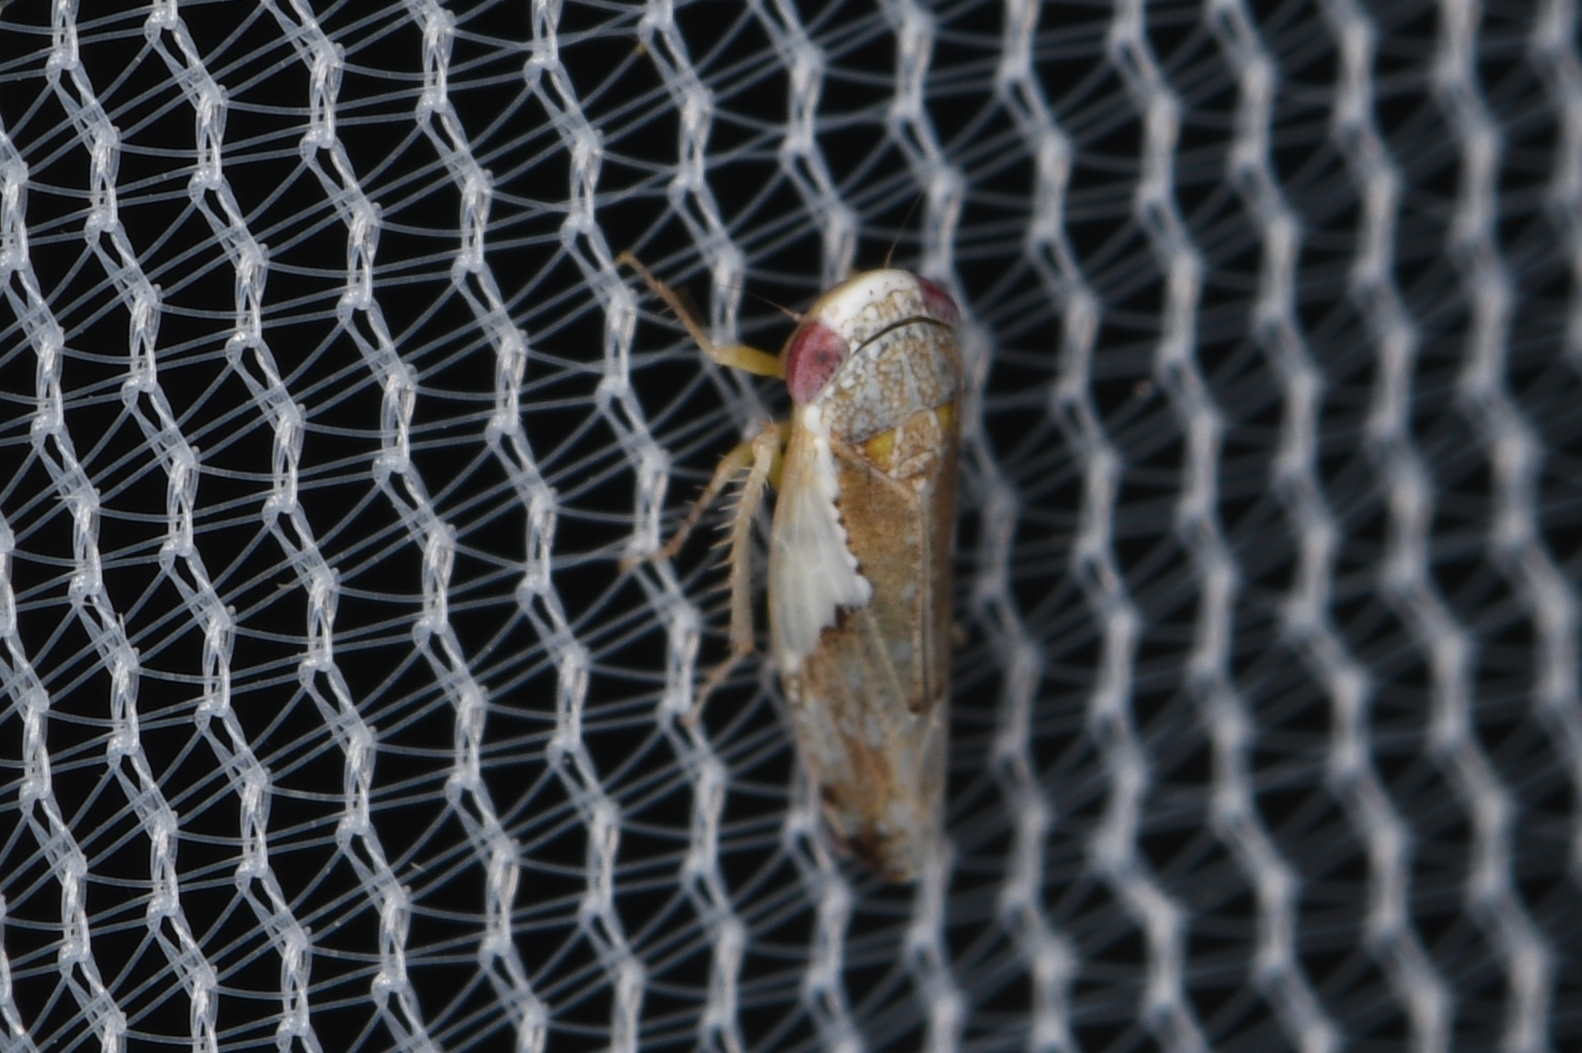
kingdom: Animalia
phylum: Arthropoda
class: Insecta
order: Hemiptera
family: Cicadellidae
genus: Norvellina
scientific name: Norvellina snowi
